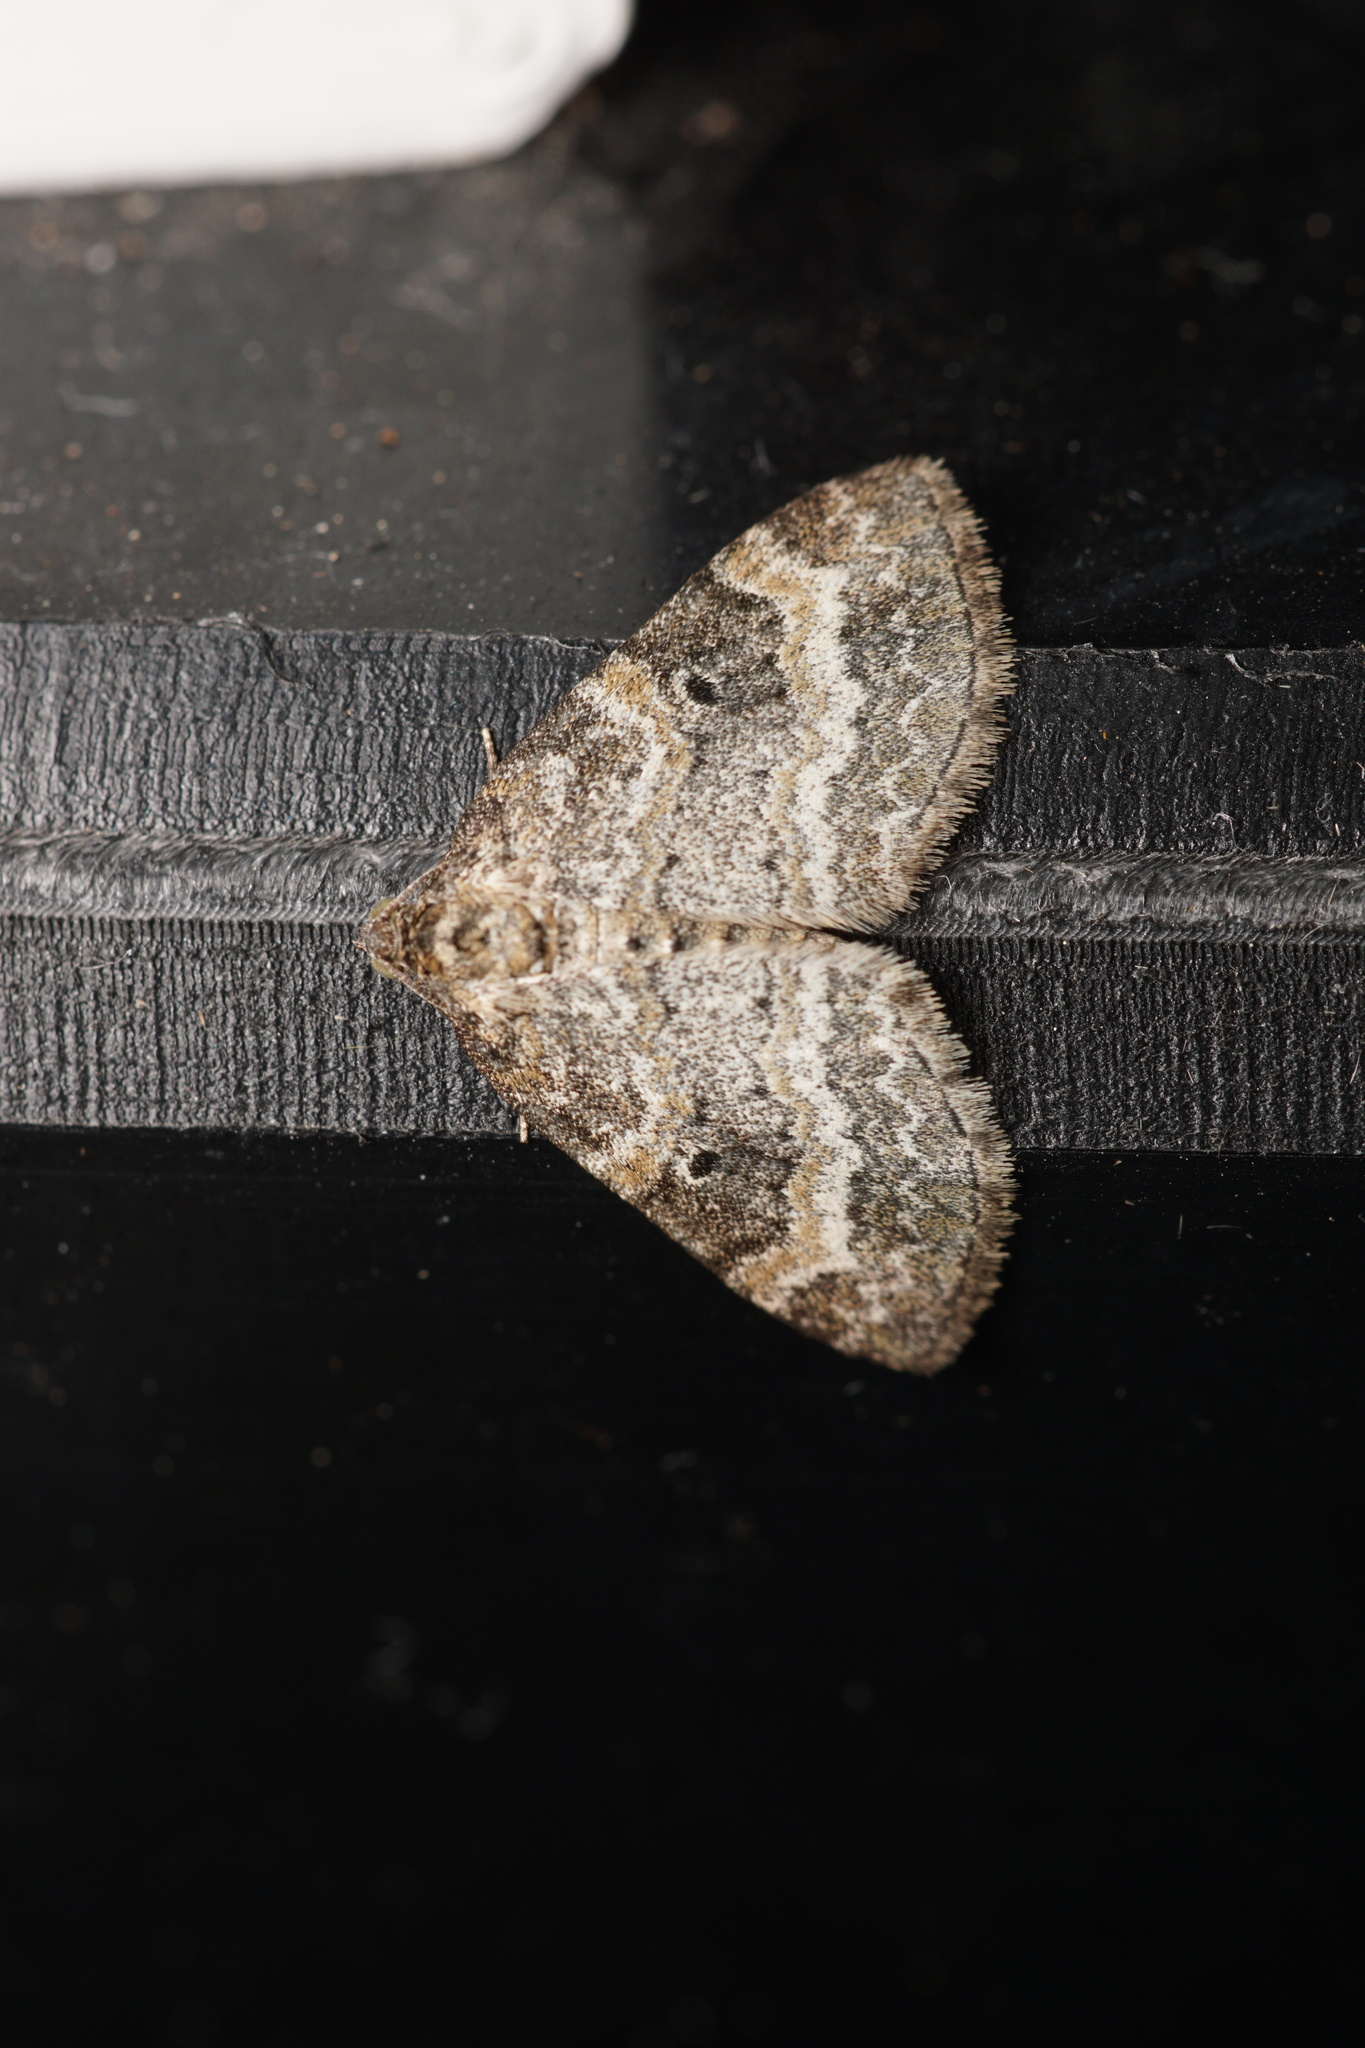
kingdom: Animalia
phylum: Arthropoda
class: Insecta
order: Lepidoptera
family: Geometridae
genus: Pterapherapteryx
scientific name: Pterapherapteryx sexalata
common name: Small seraphim
